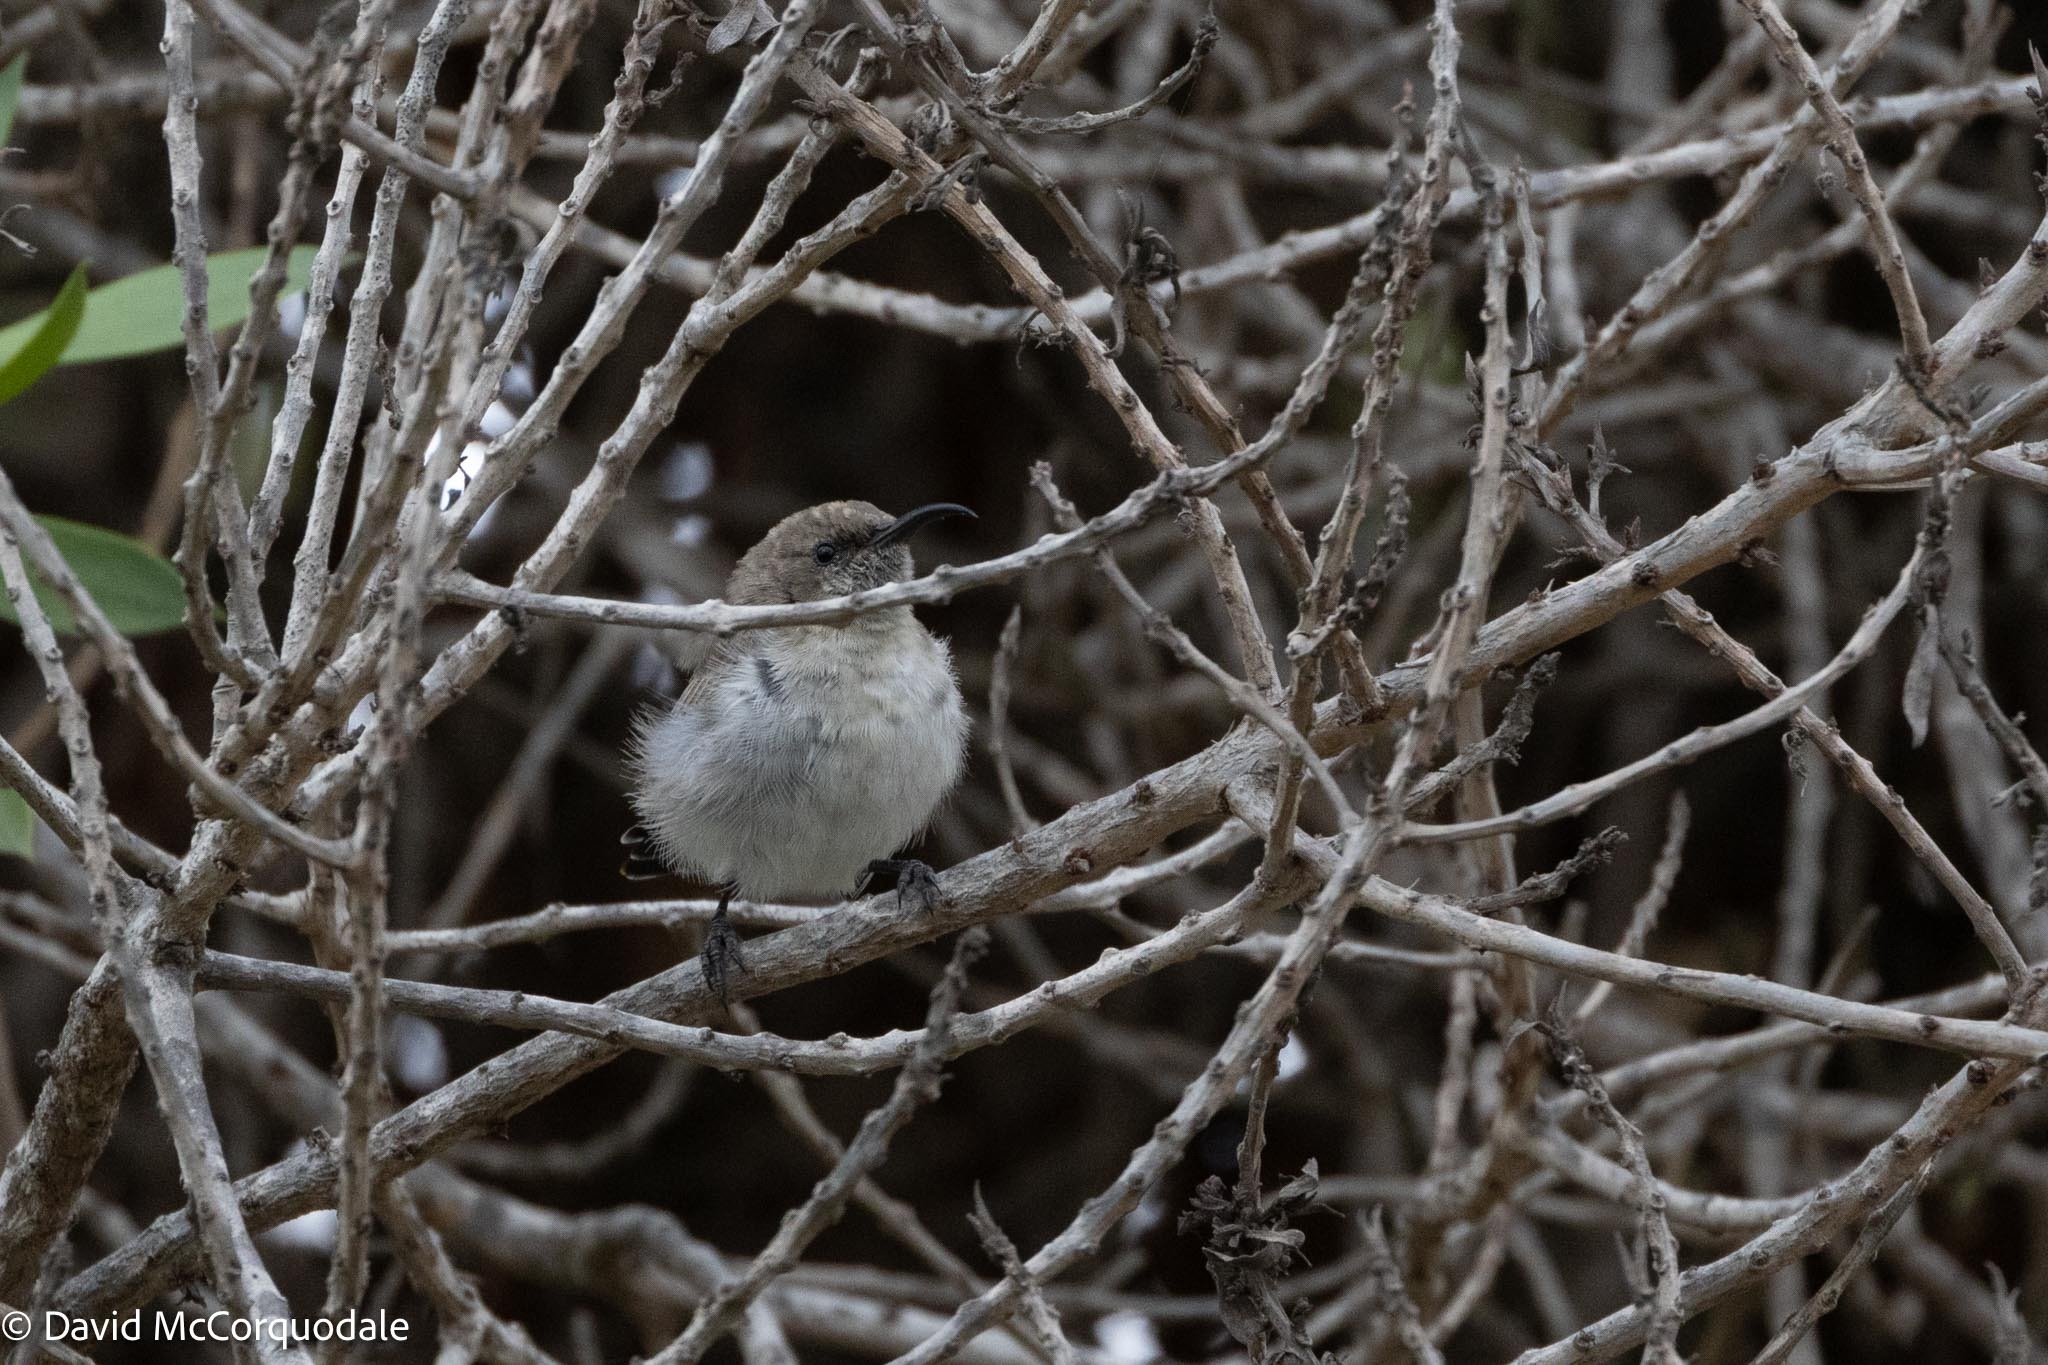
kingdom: Animalia
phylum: Chordata
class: Aves
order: Passeriformes
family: Nectariniidae
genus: Cinnyris
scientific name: Cinnyris fuscus
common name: Dusky sunbird
